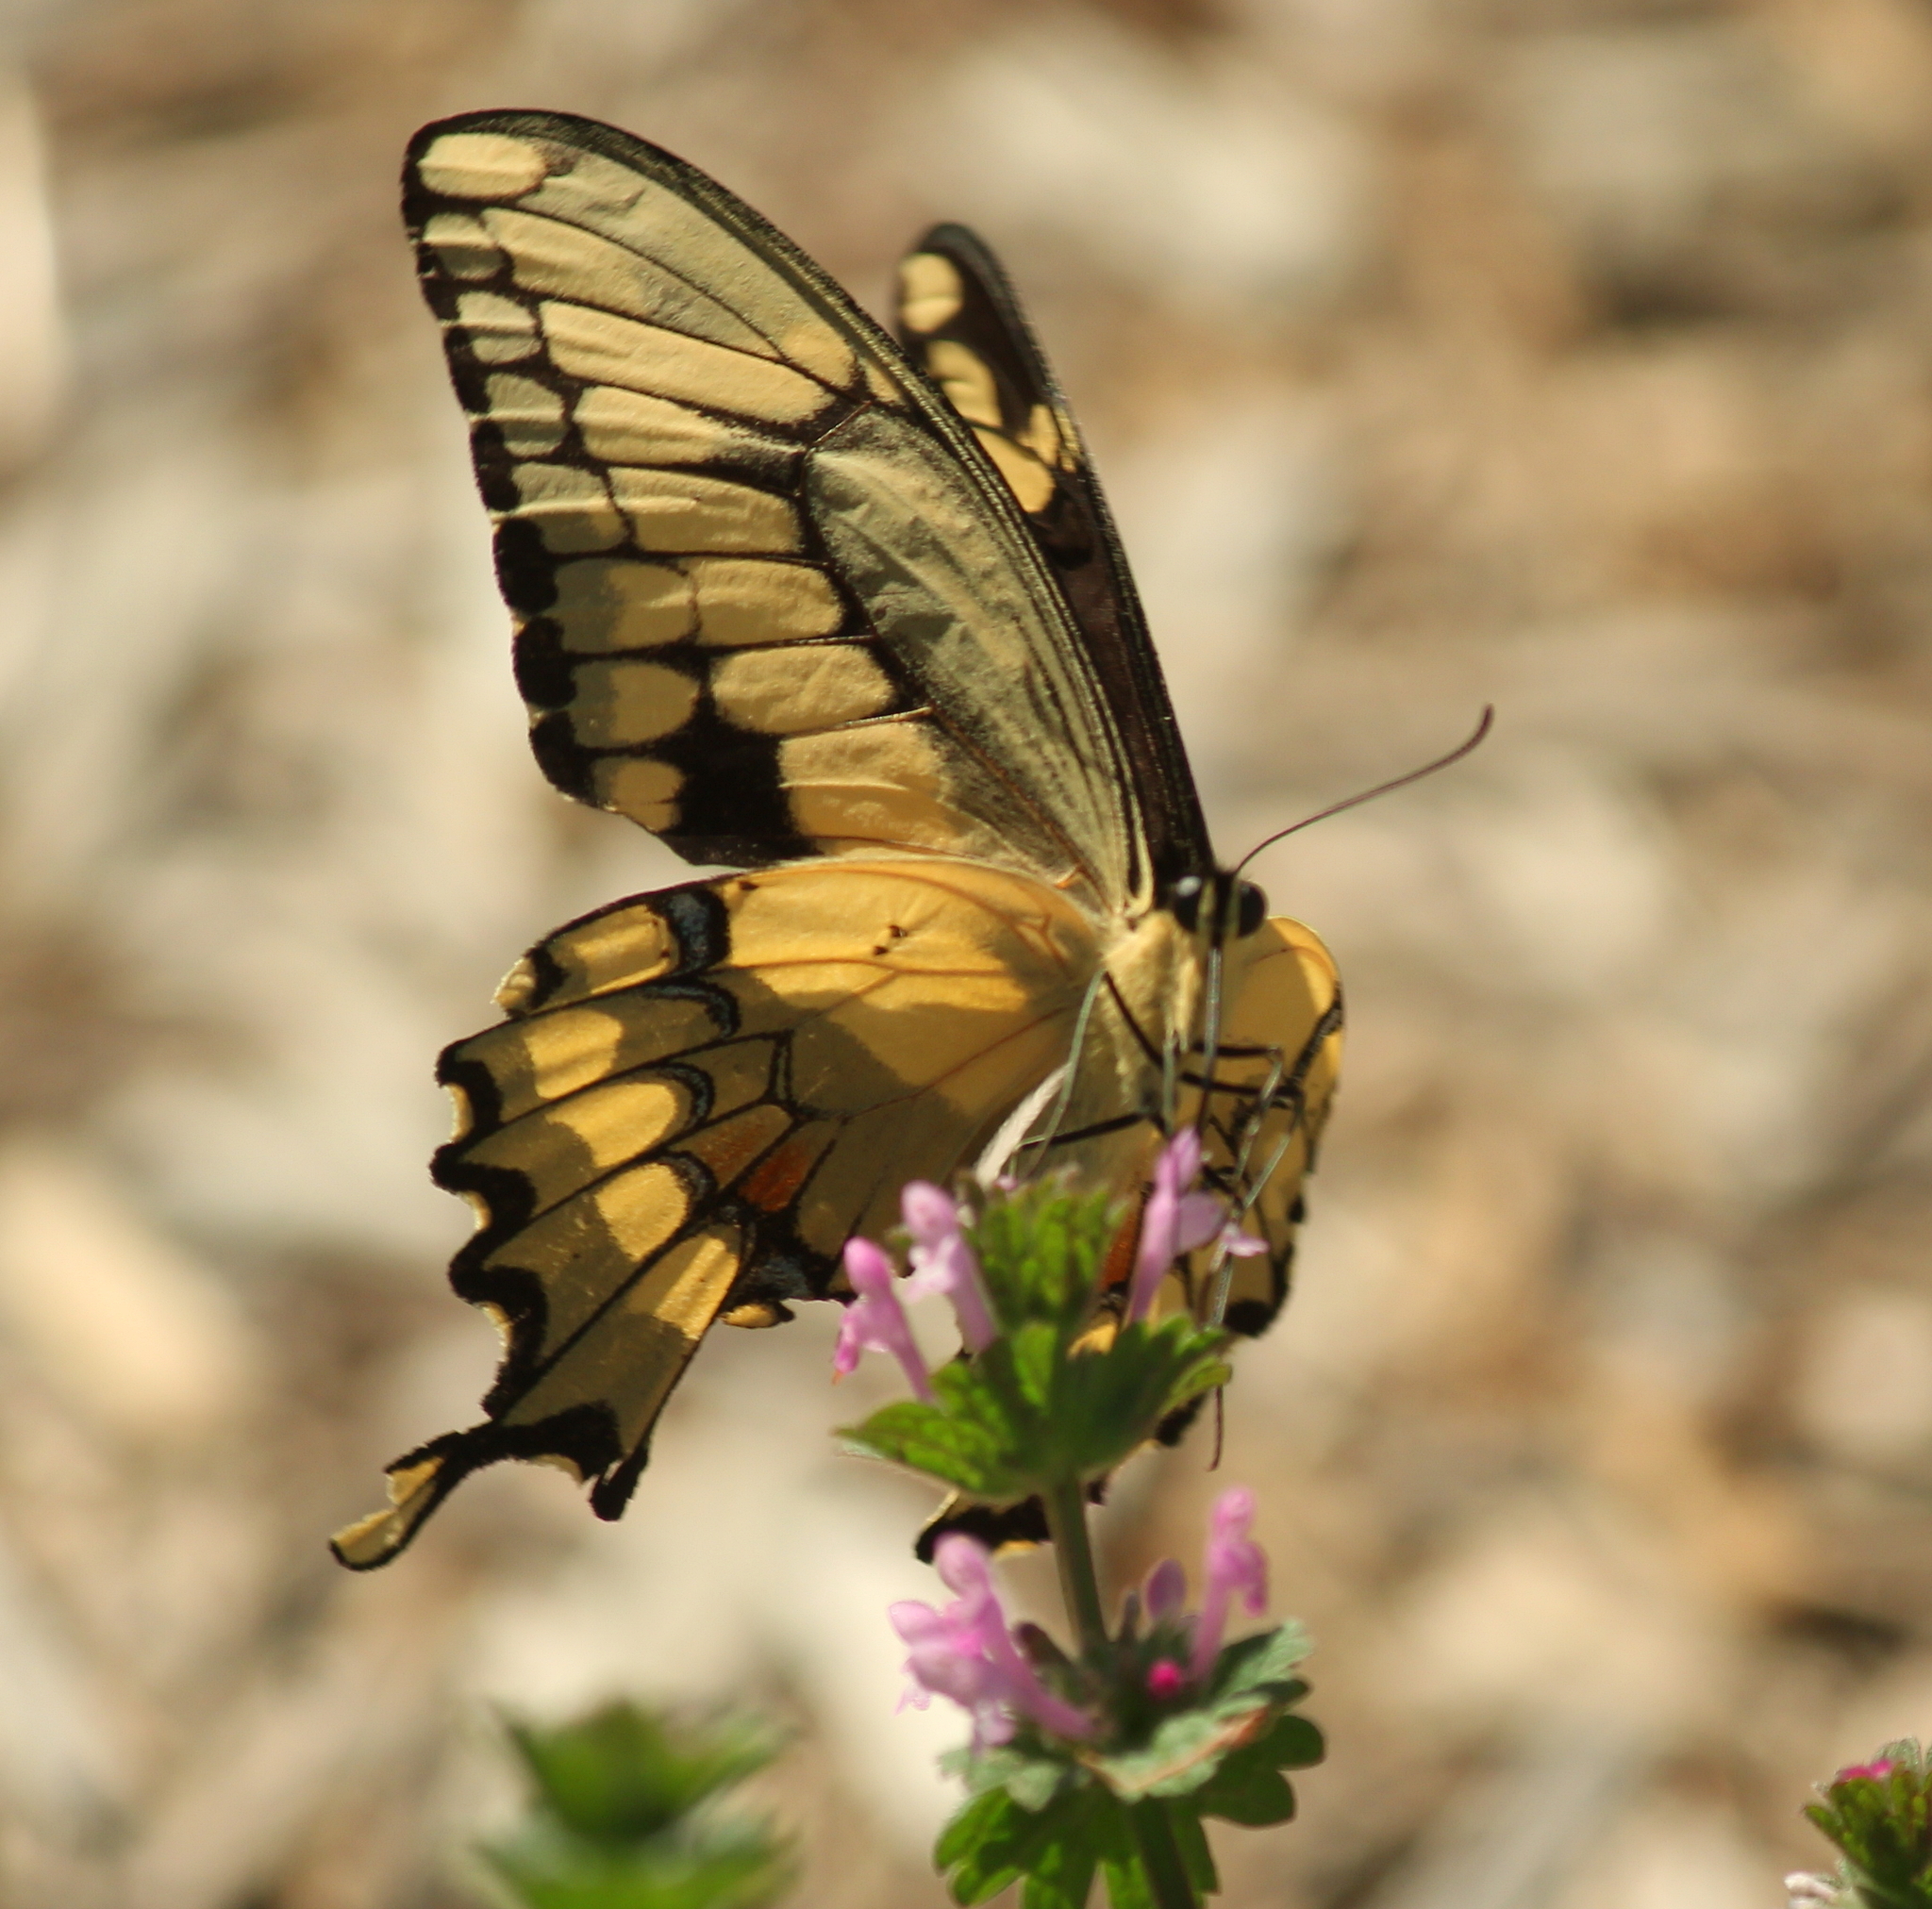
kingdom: Animalia
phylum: Arthropoda
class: Insecta
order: Lepidoptera
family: Papilionidae
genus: Papilio
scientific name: Papilio cresphontes
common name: Giant swallowtail
